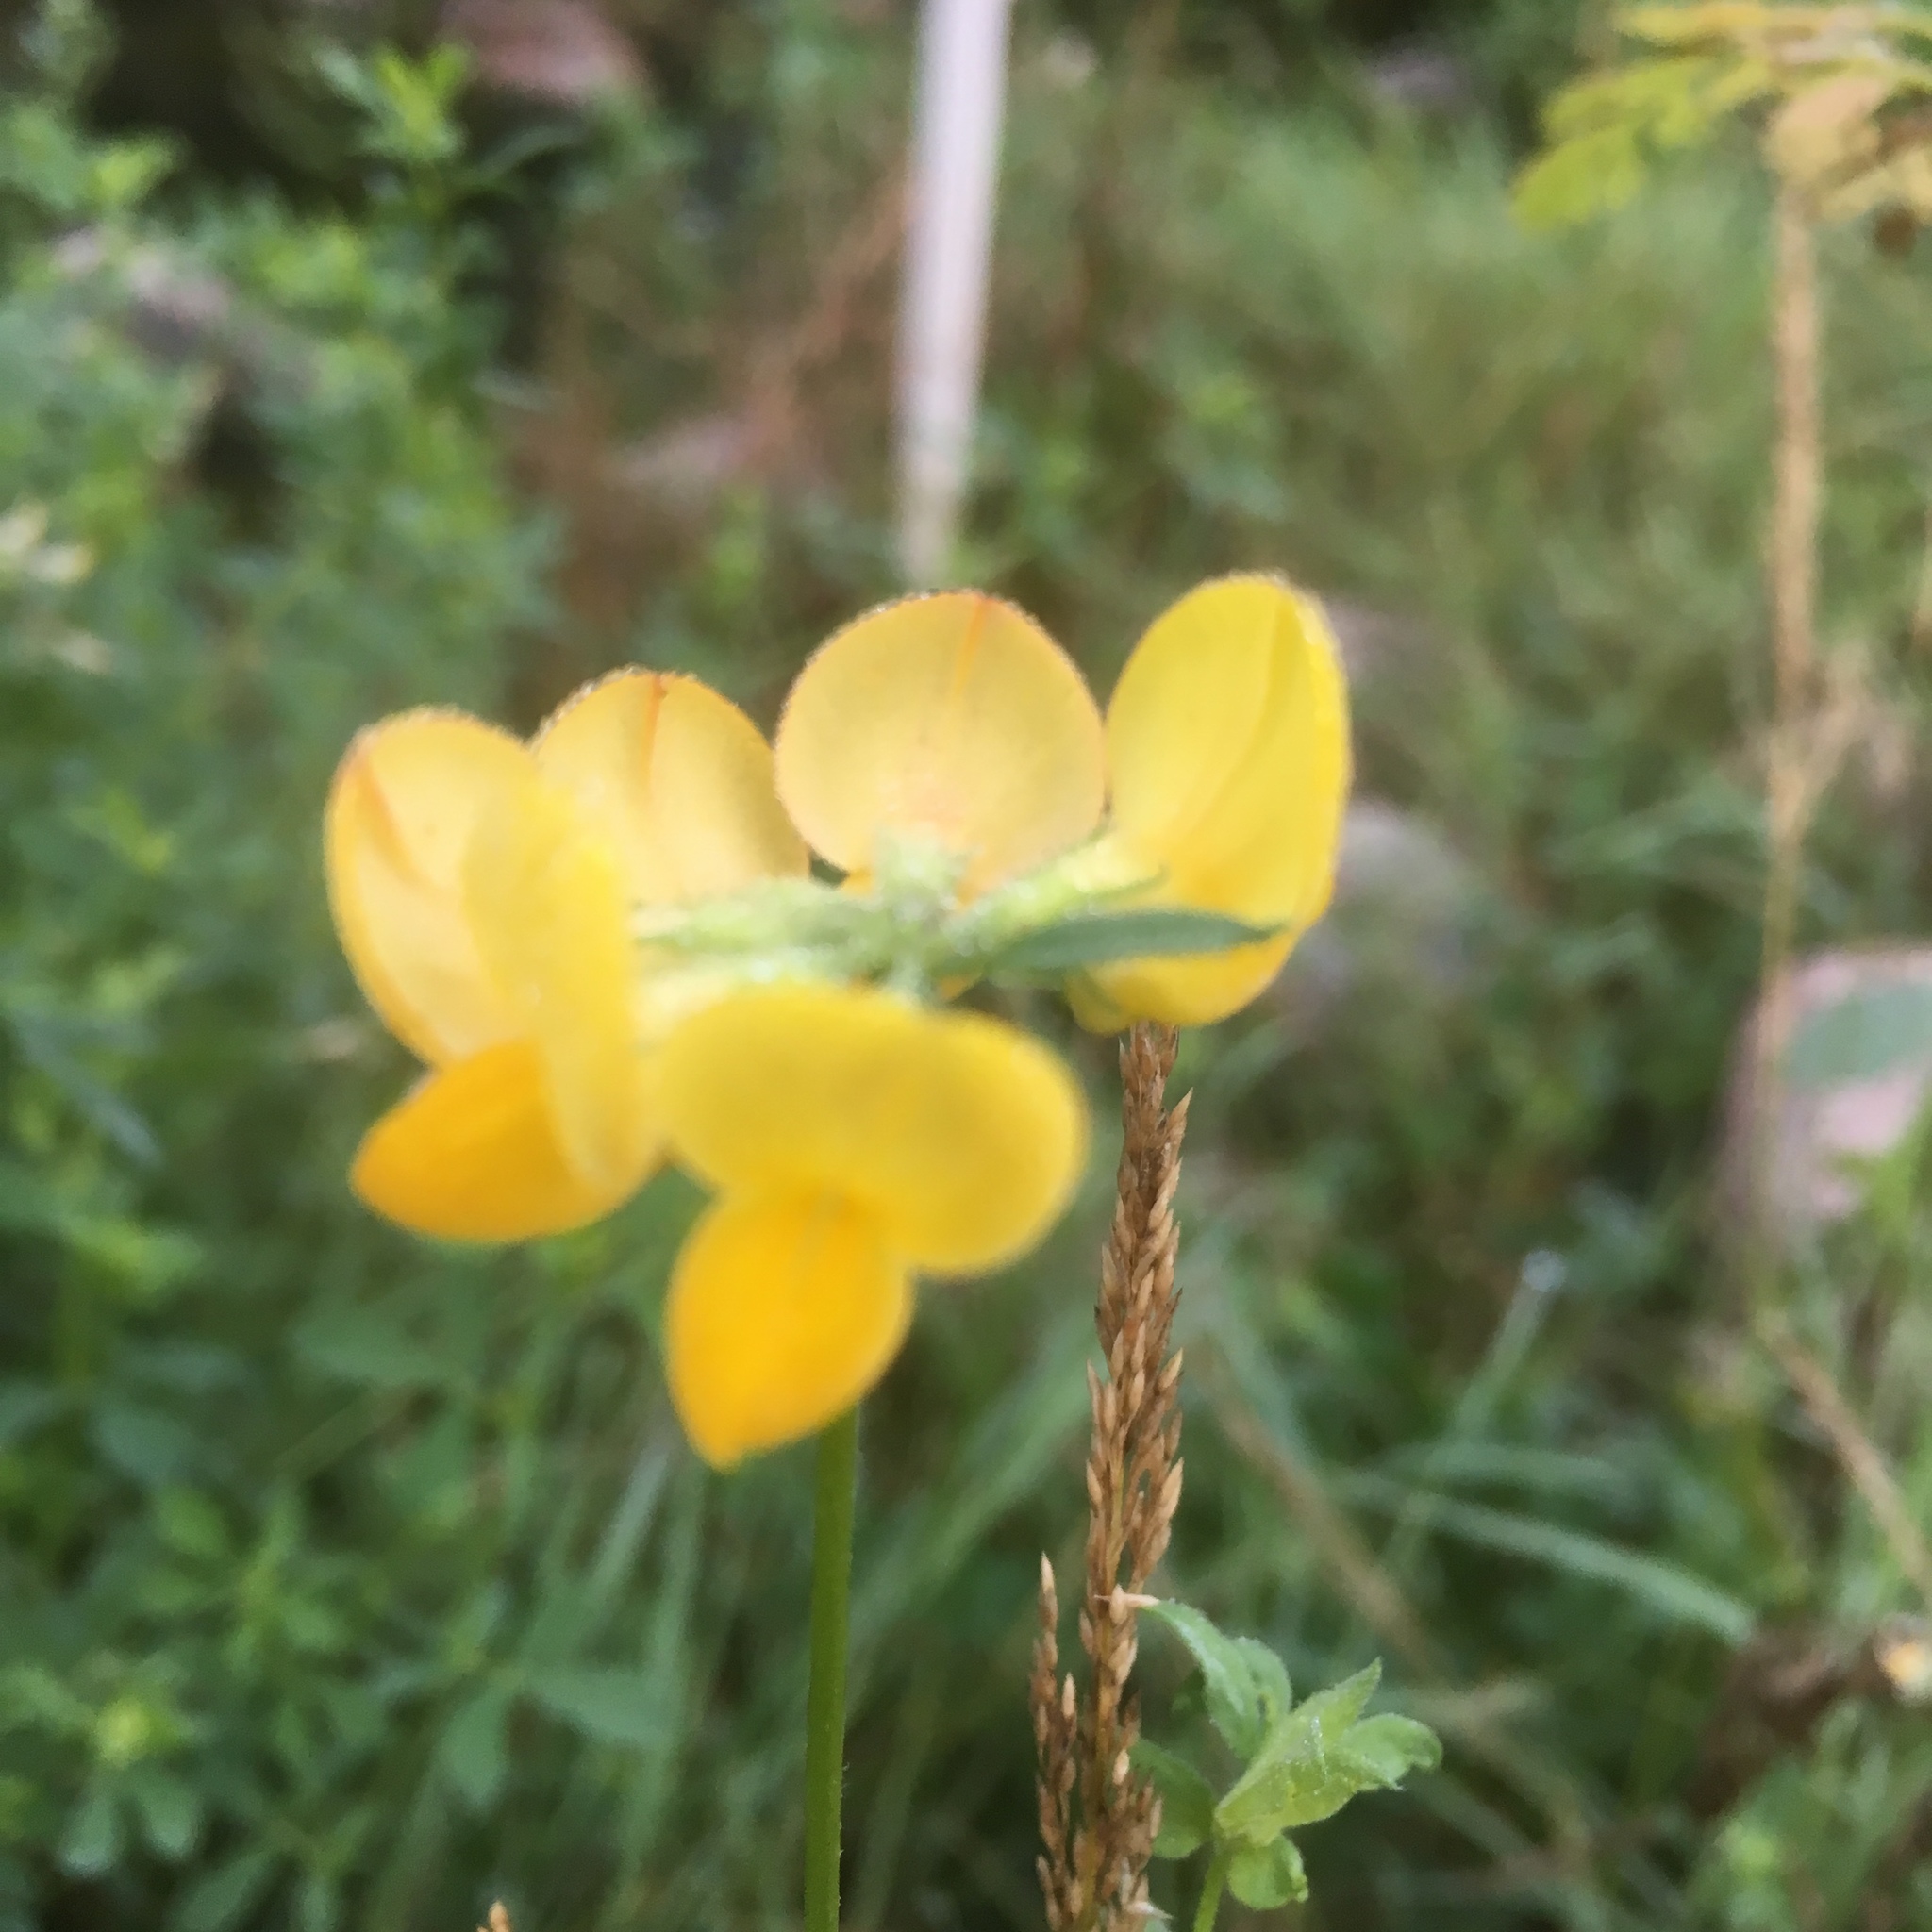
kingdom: Plantae
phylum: Tracheophyta
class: Magnoliopsida
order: Fabales
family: Fabaceae
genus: Lotus
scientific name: Lotus corniculatus
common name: Common bird's-foot-trefoil
